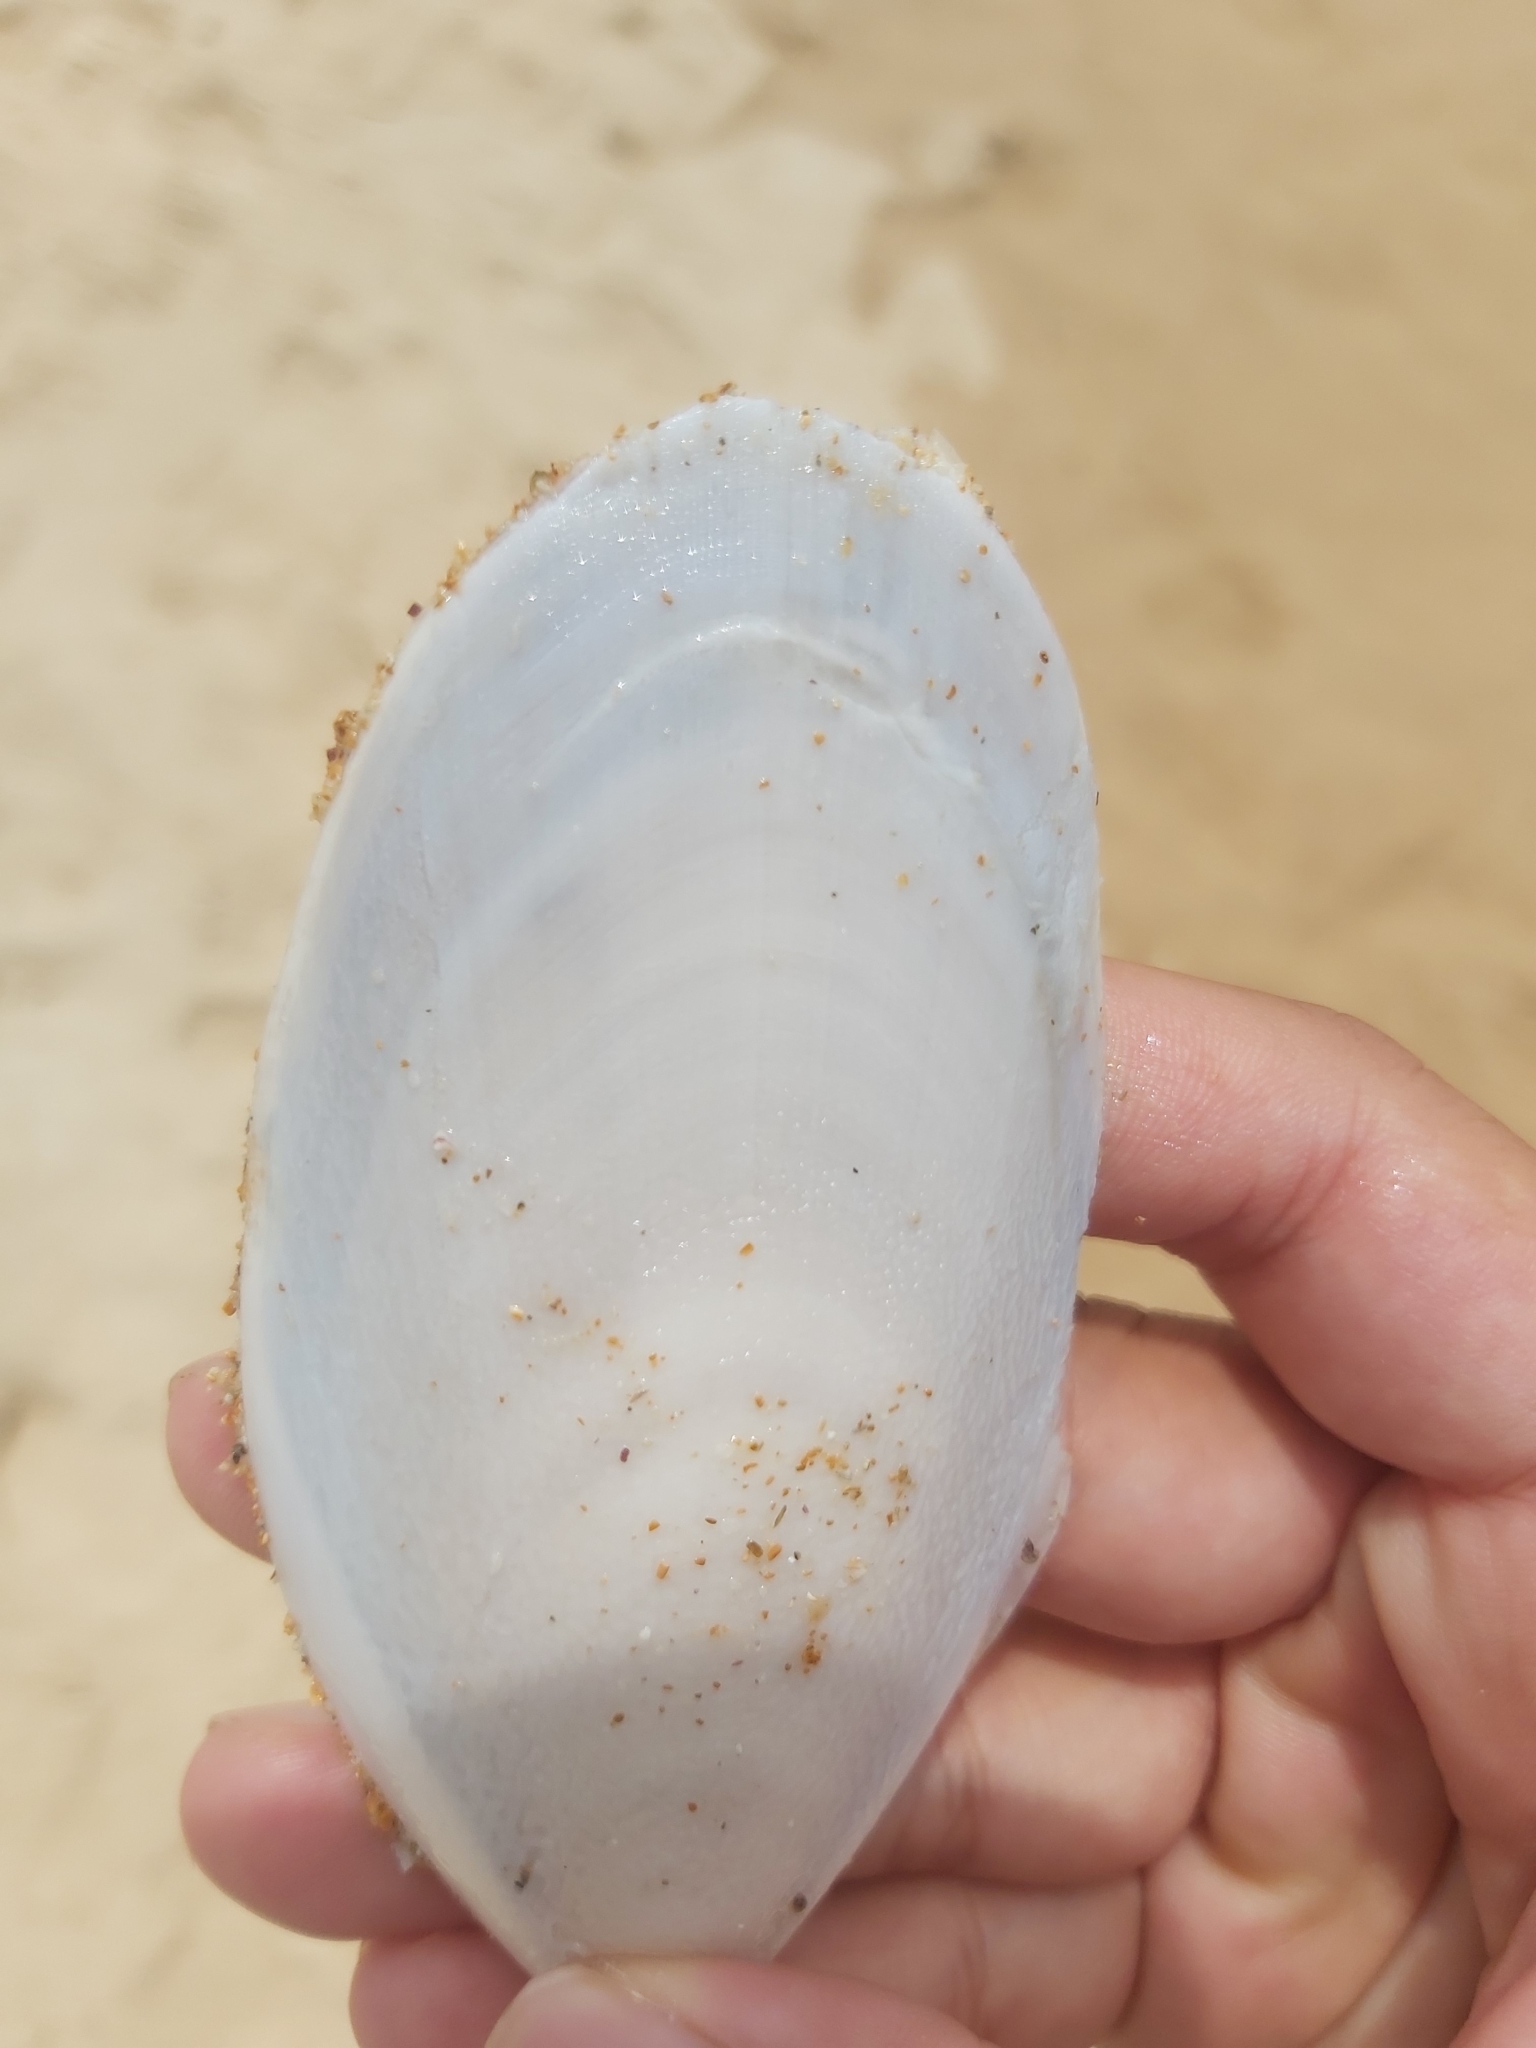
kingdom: Animalia
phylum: Mollusca
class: Cephalopoda
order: Sepiida
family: Sepiidae
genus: Ascarosepion
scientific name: Ascarosepion mestus
